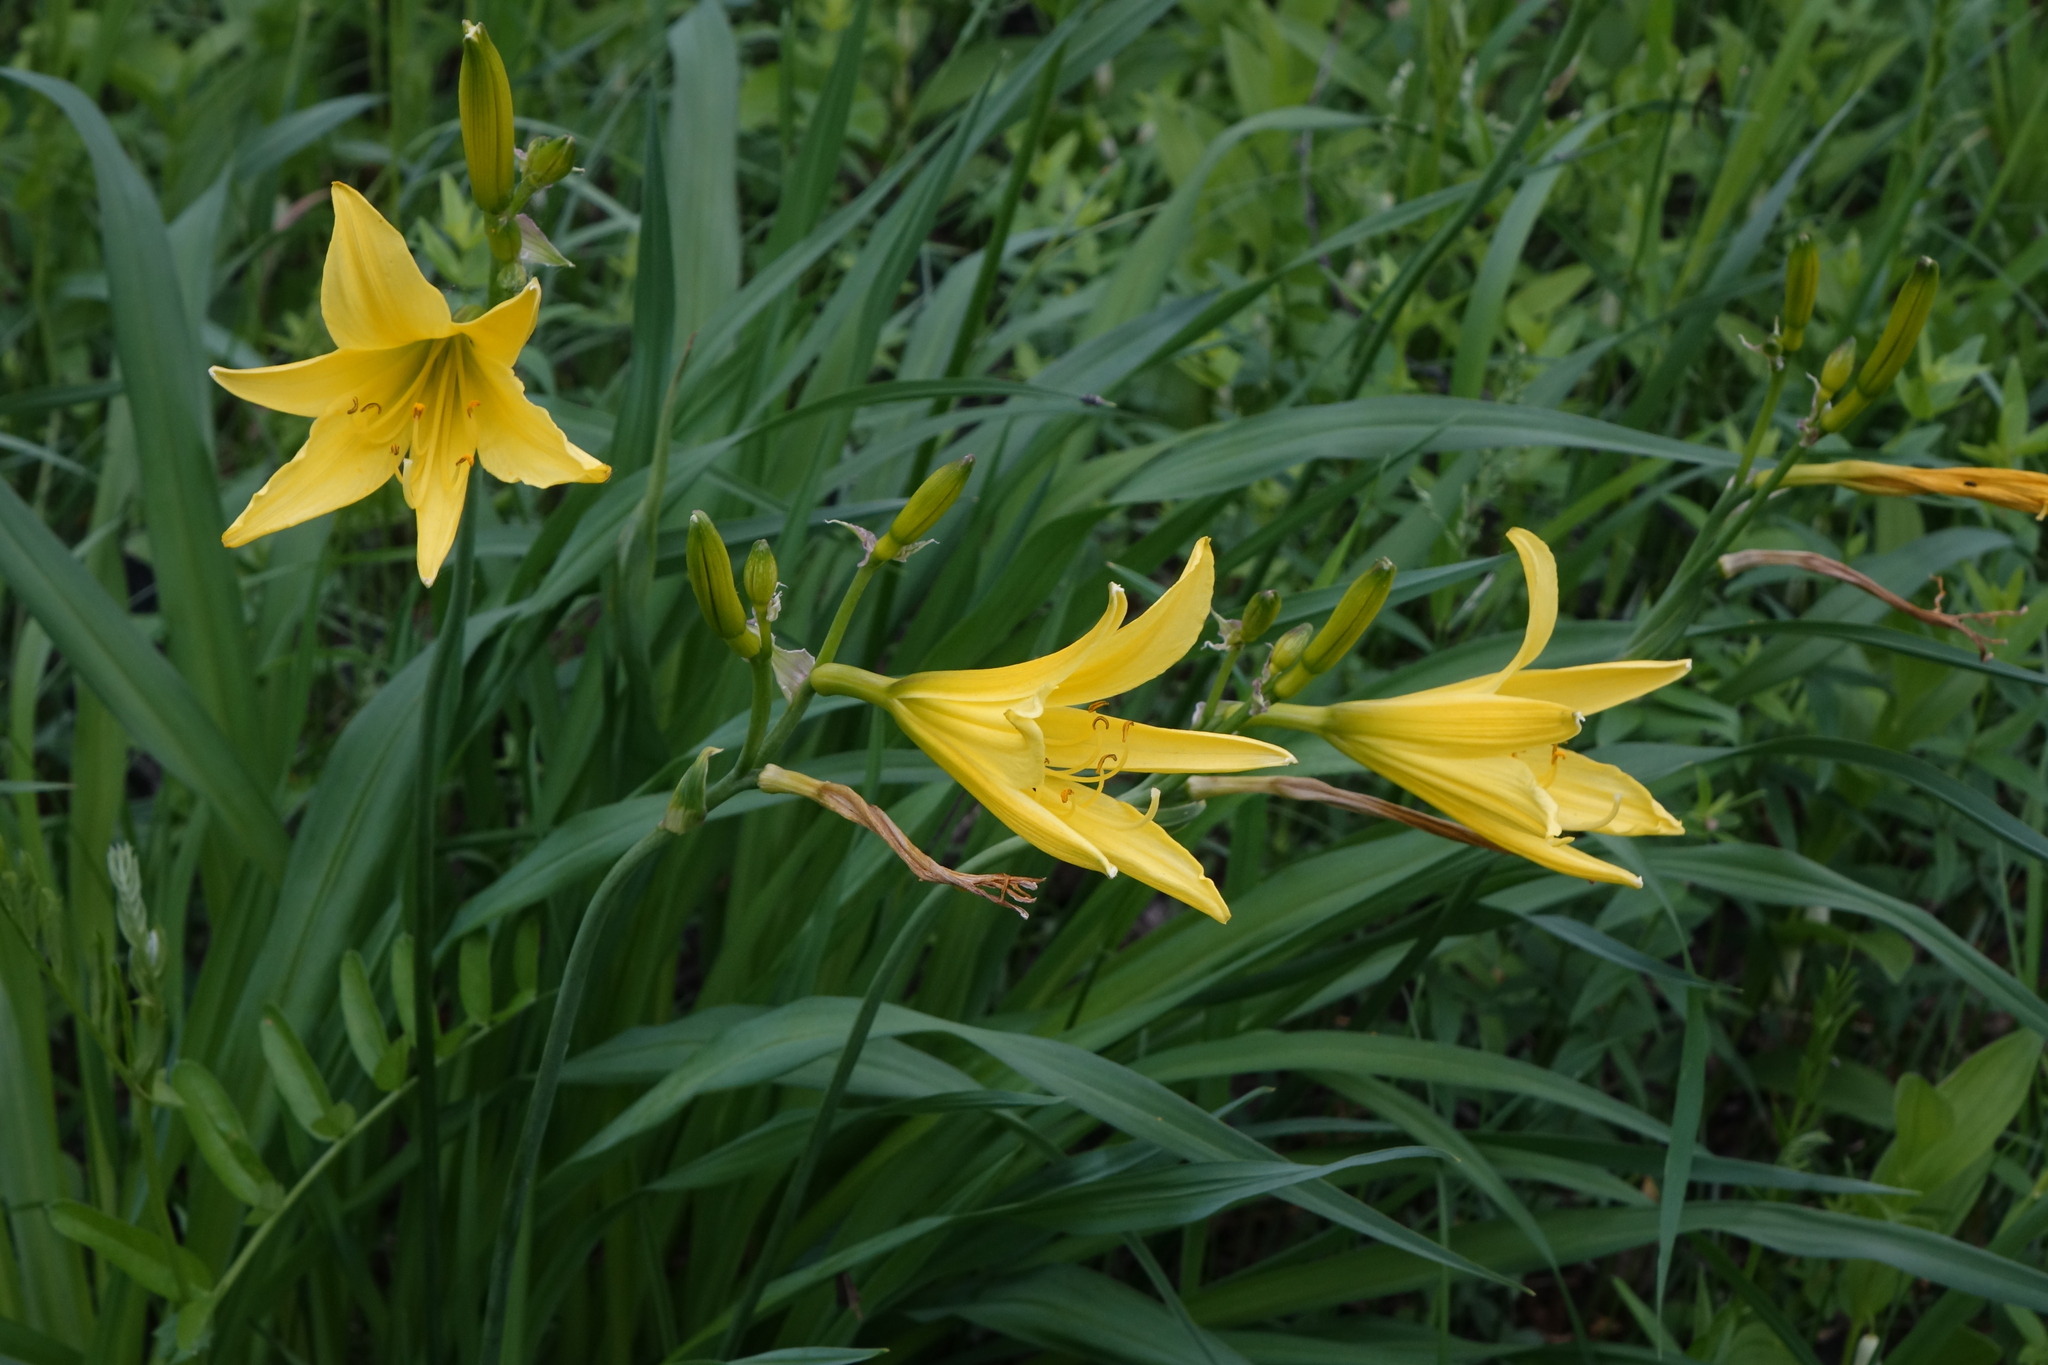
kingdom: Plantae
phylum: Tracheophyta
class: Liliopsida
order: Asparagales
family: Asphodelaceae
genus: Hemerocallis
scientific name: Hemerocallis minor
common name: Small daylily
